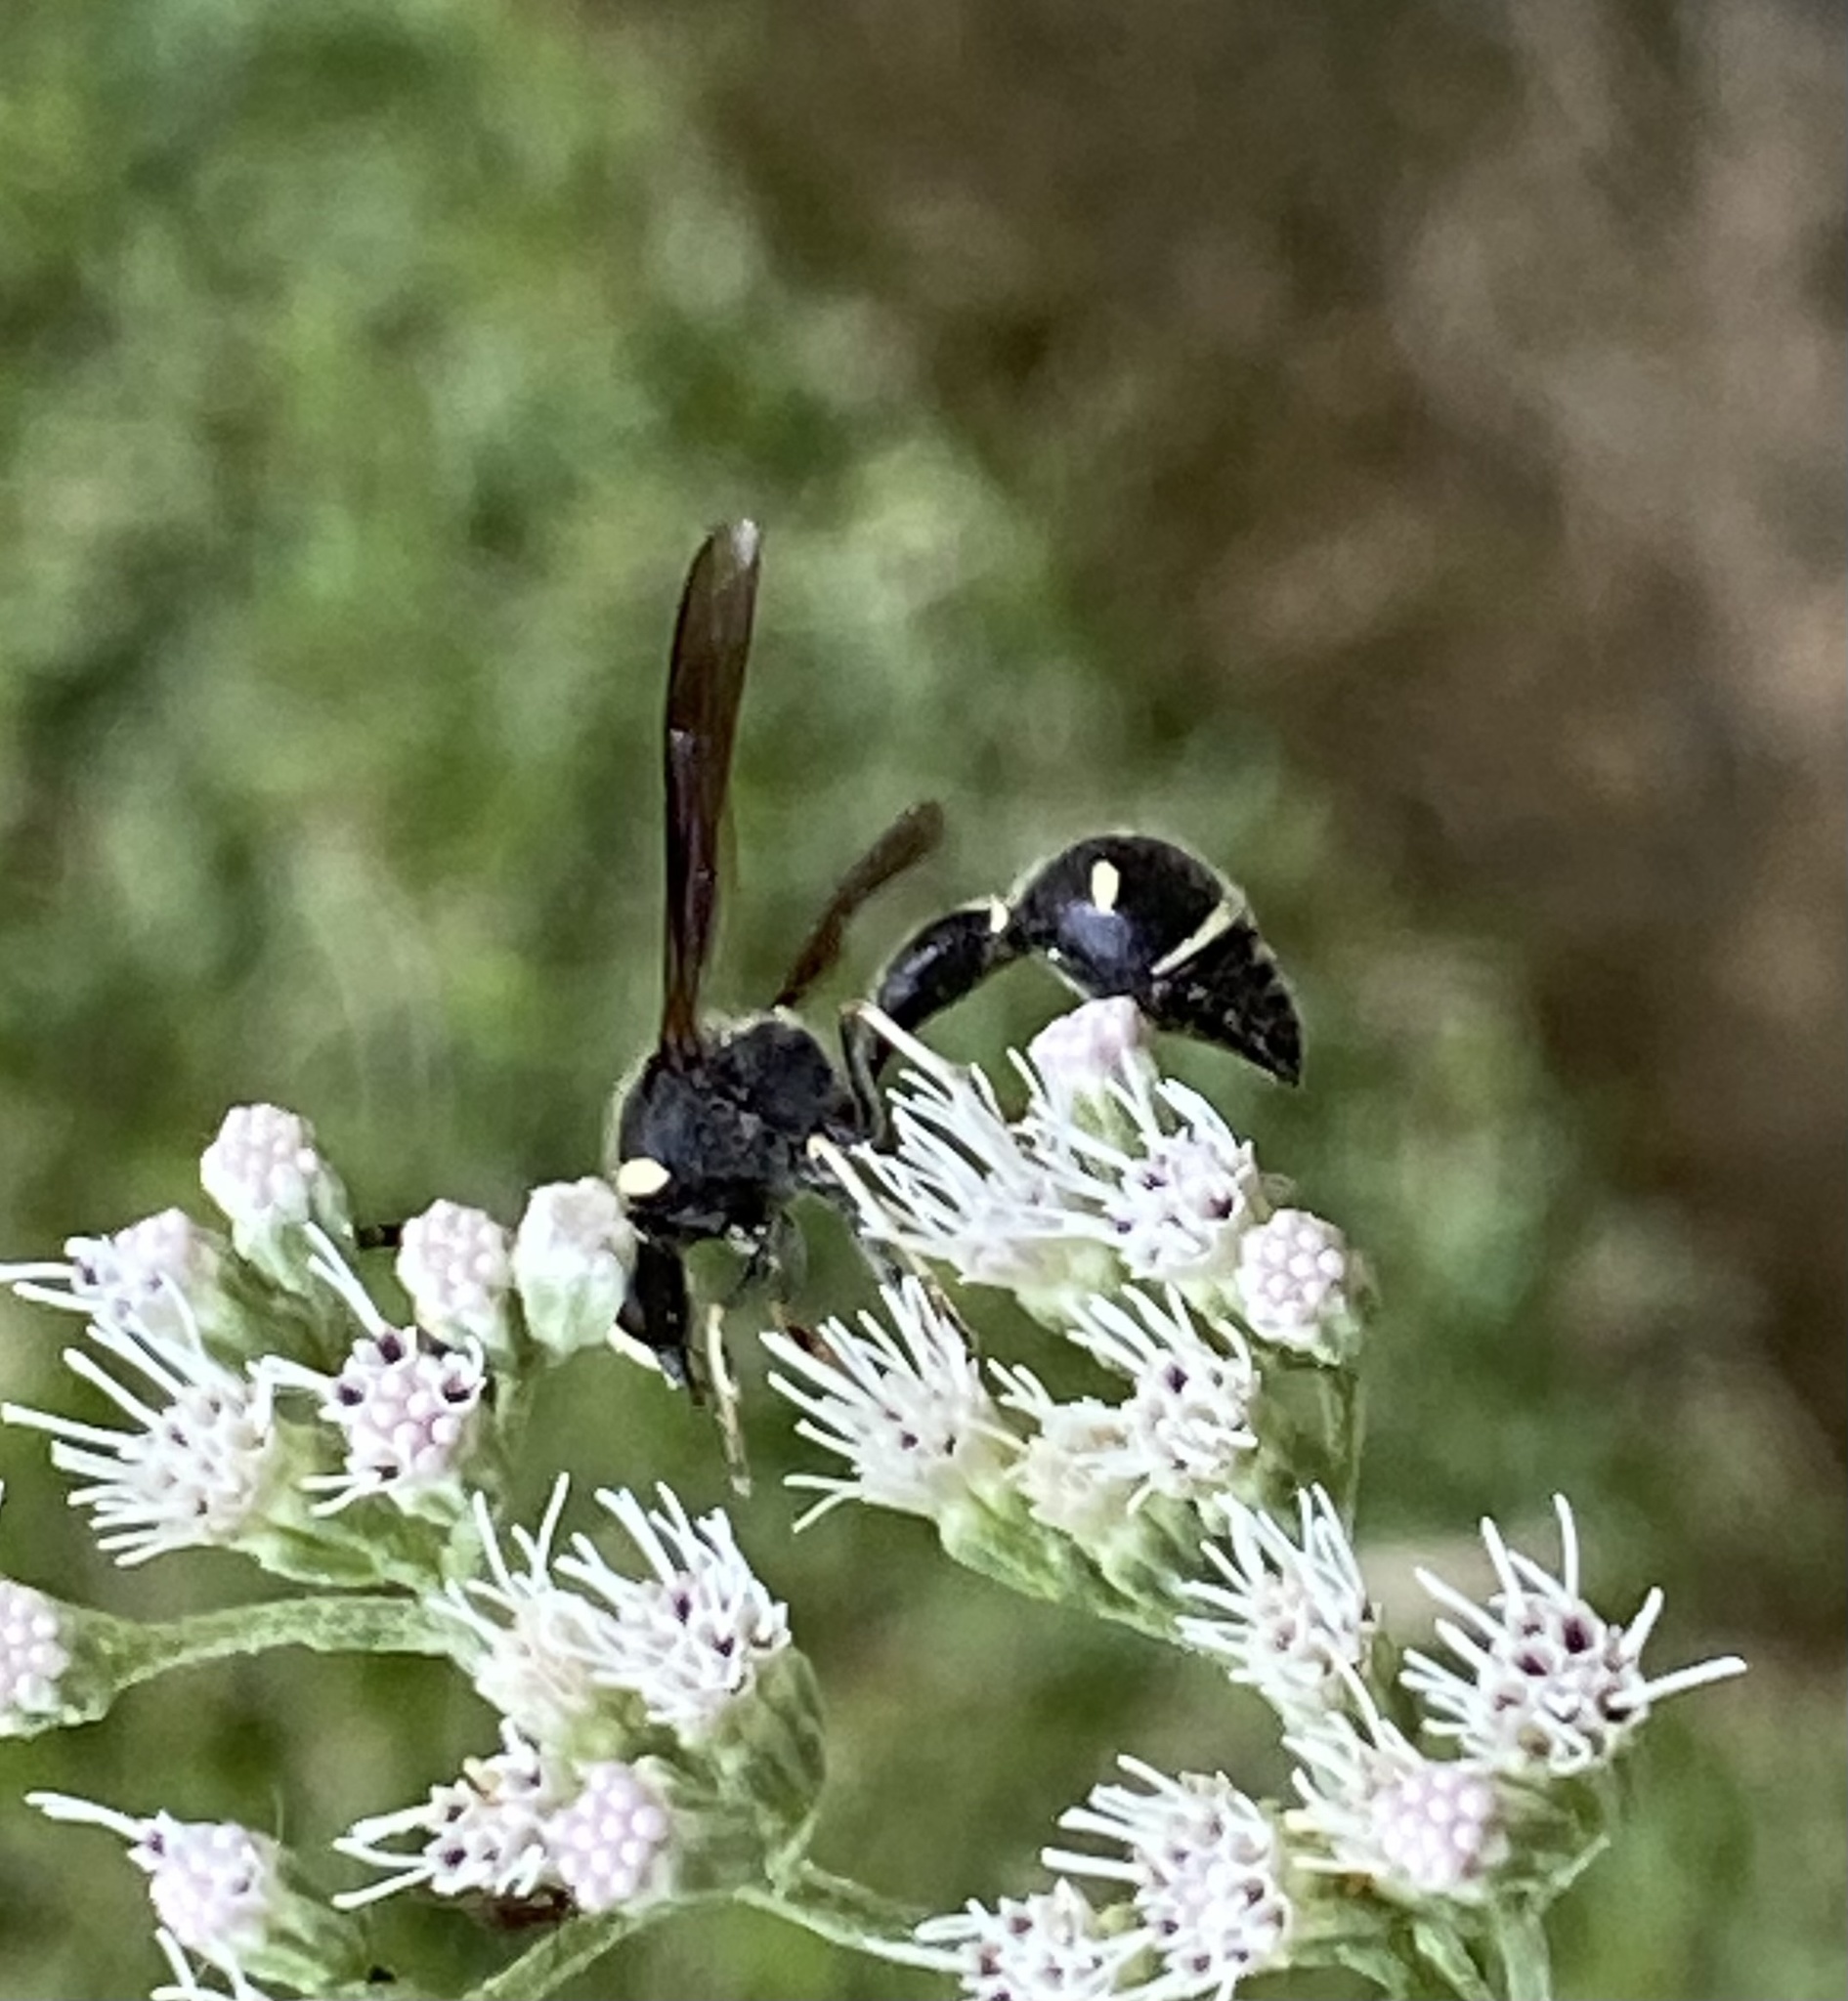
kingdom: Animalia
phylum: Arthropoda
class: Insecta
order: Hymenoptera
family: Vespidae
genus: Eumenes
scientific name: Eumenes fraternus
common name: Fraternal potter wasp
